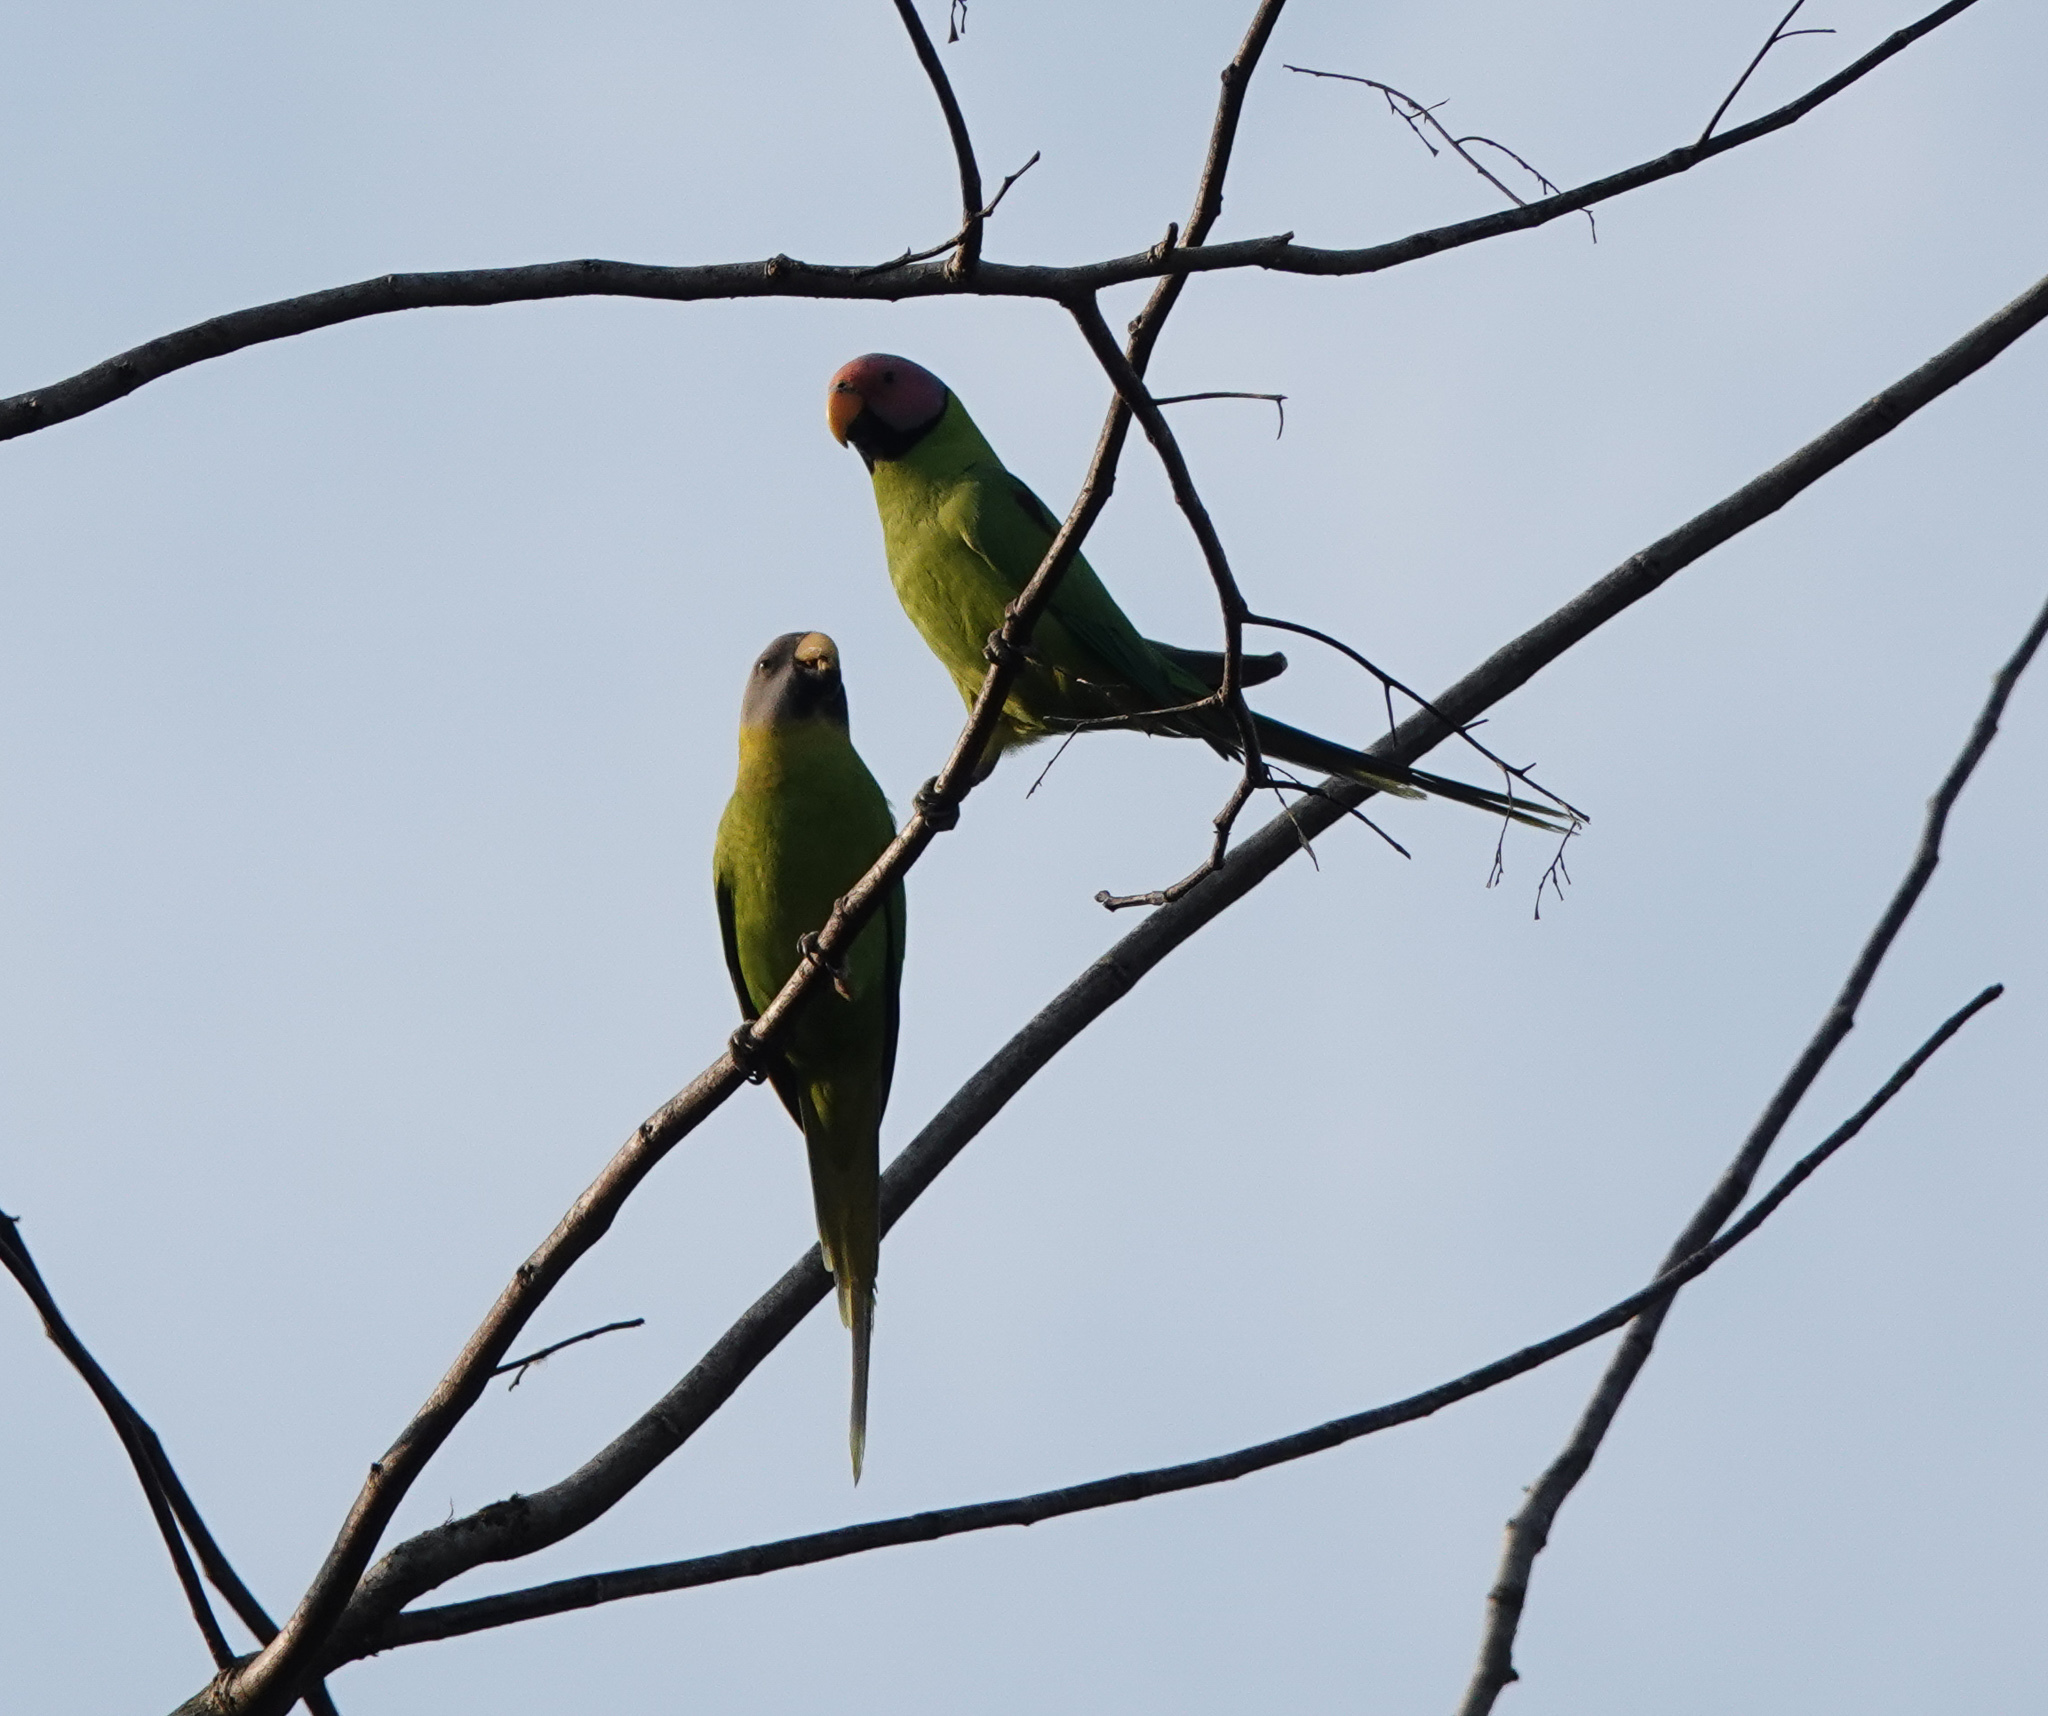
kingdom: Animalia
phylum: Chordata
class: Aves
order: Psittaciformes
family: Psittacidae
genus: Psittacula
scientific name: Psittacula roseata
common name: Blossom-headed parakeet
